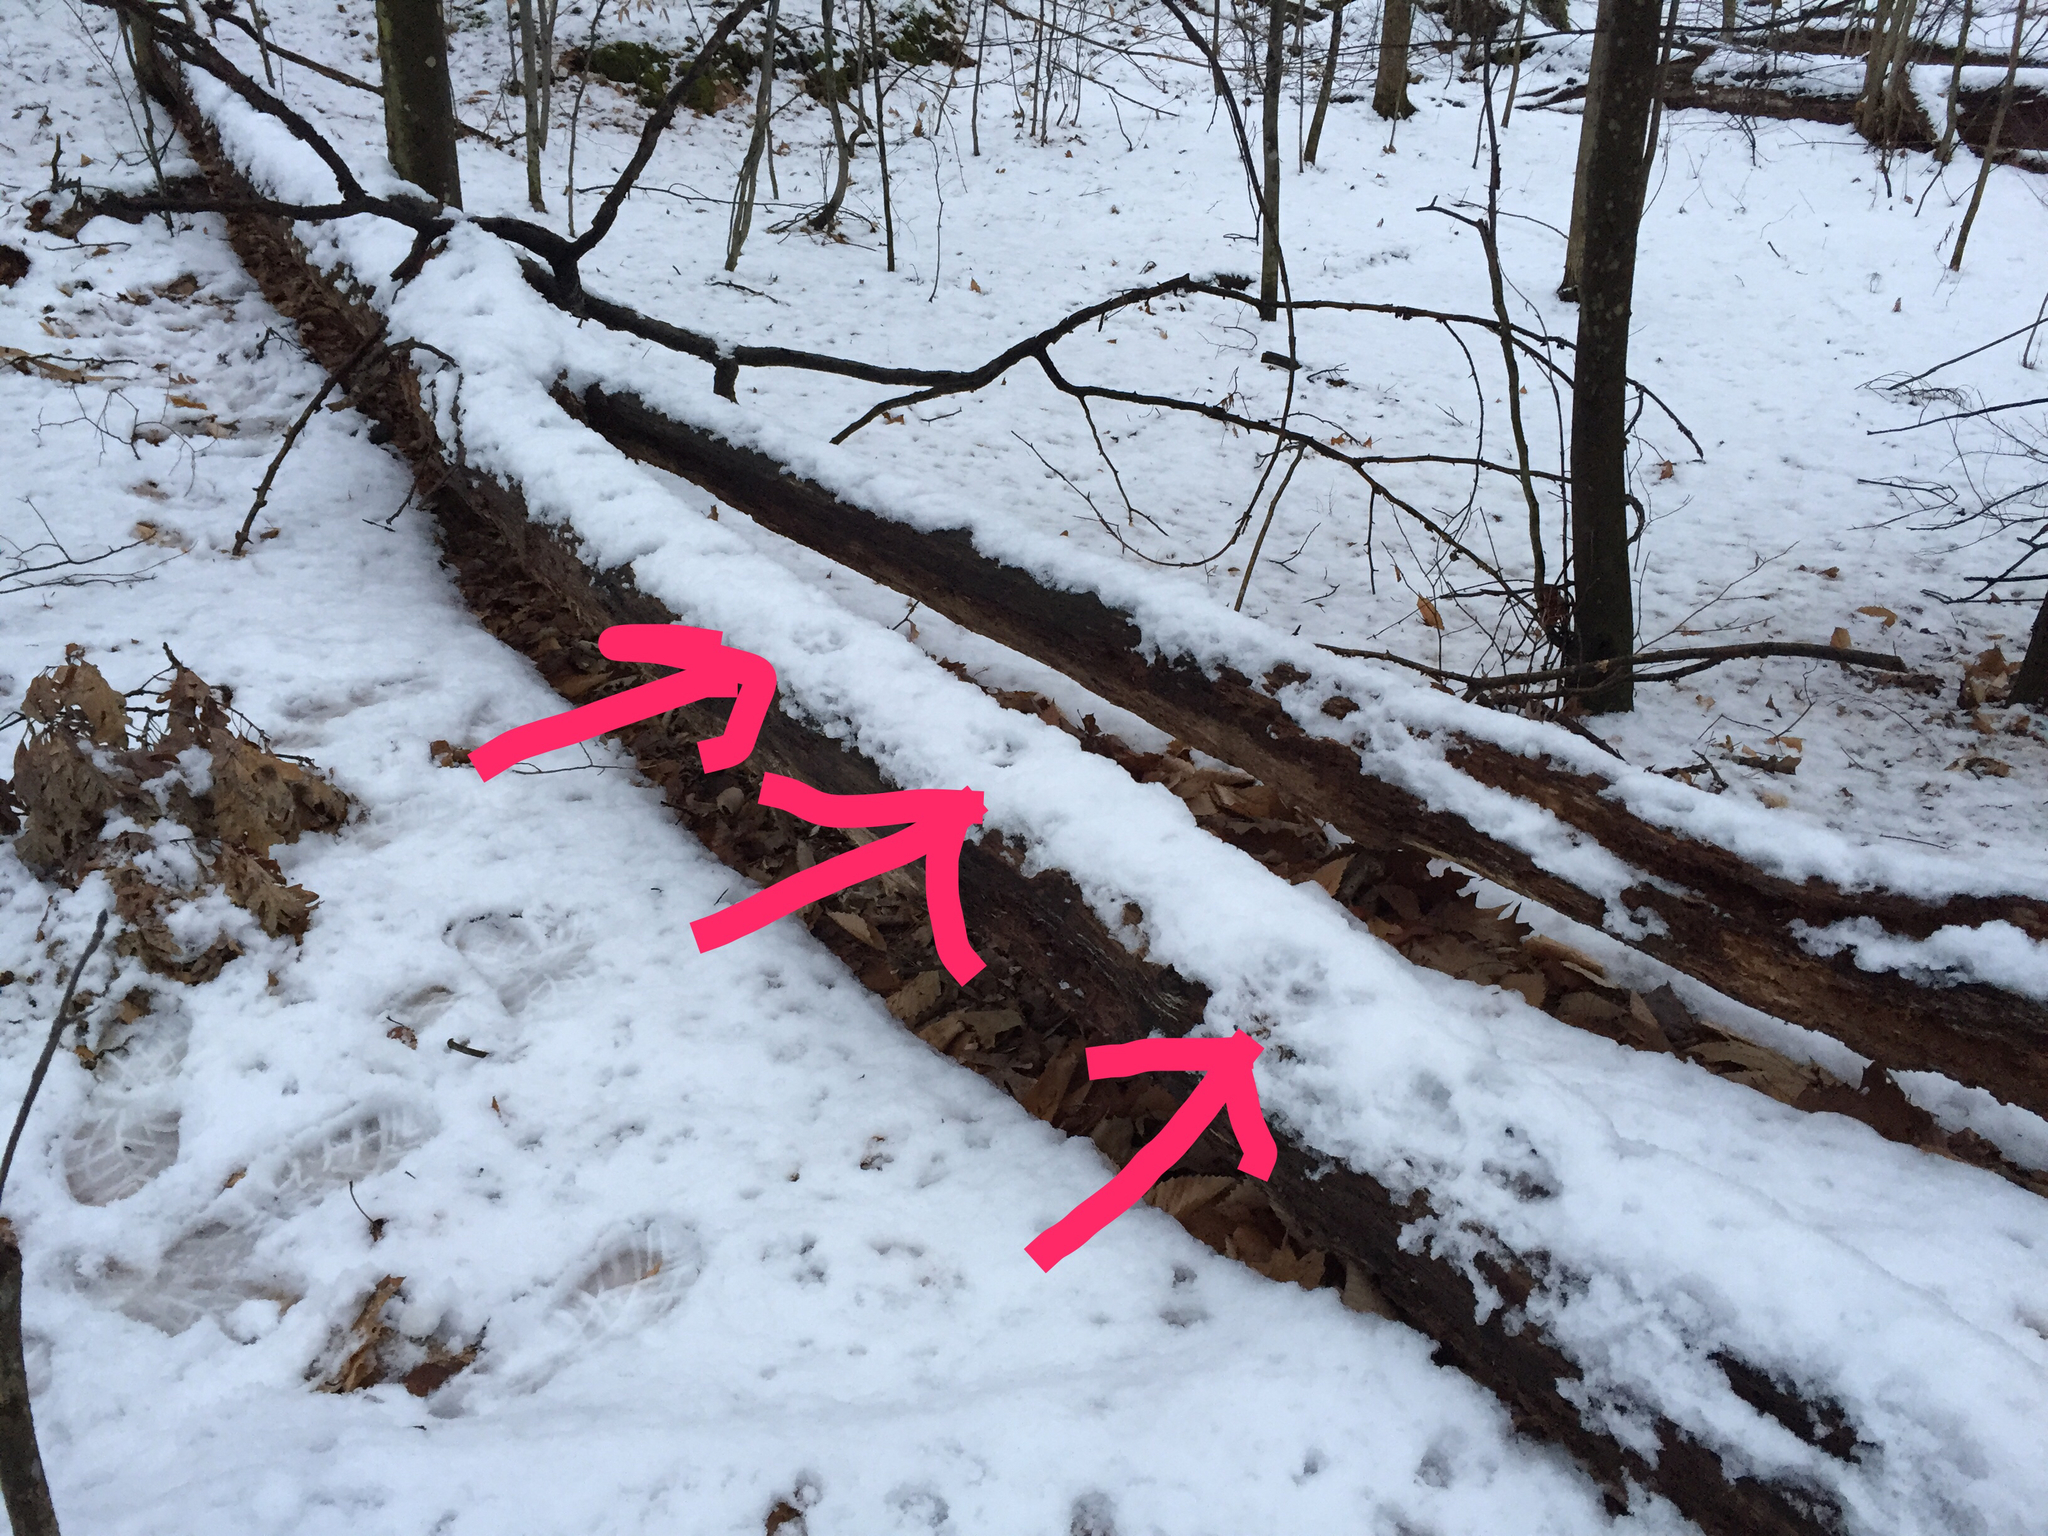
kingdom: Animalia
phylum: Chordata
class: Mammalia
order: Carnivora
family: Canidae
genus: Vulpes
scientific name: Vulpes vulpes
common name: Red fox
